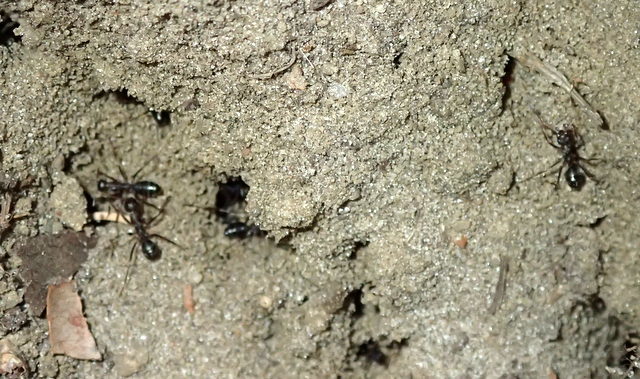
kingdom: Animalia
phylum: Arthropoda
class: Insecta
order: Hymenoptera
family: Formicidae
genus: Formica
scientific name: Formica archboldi
